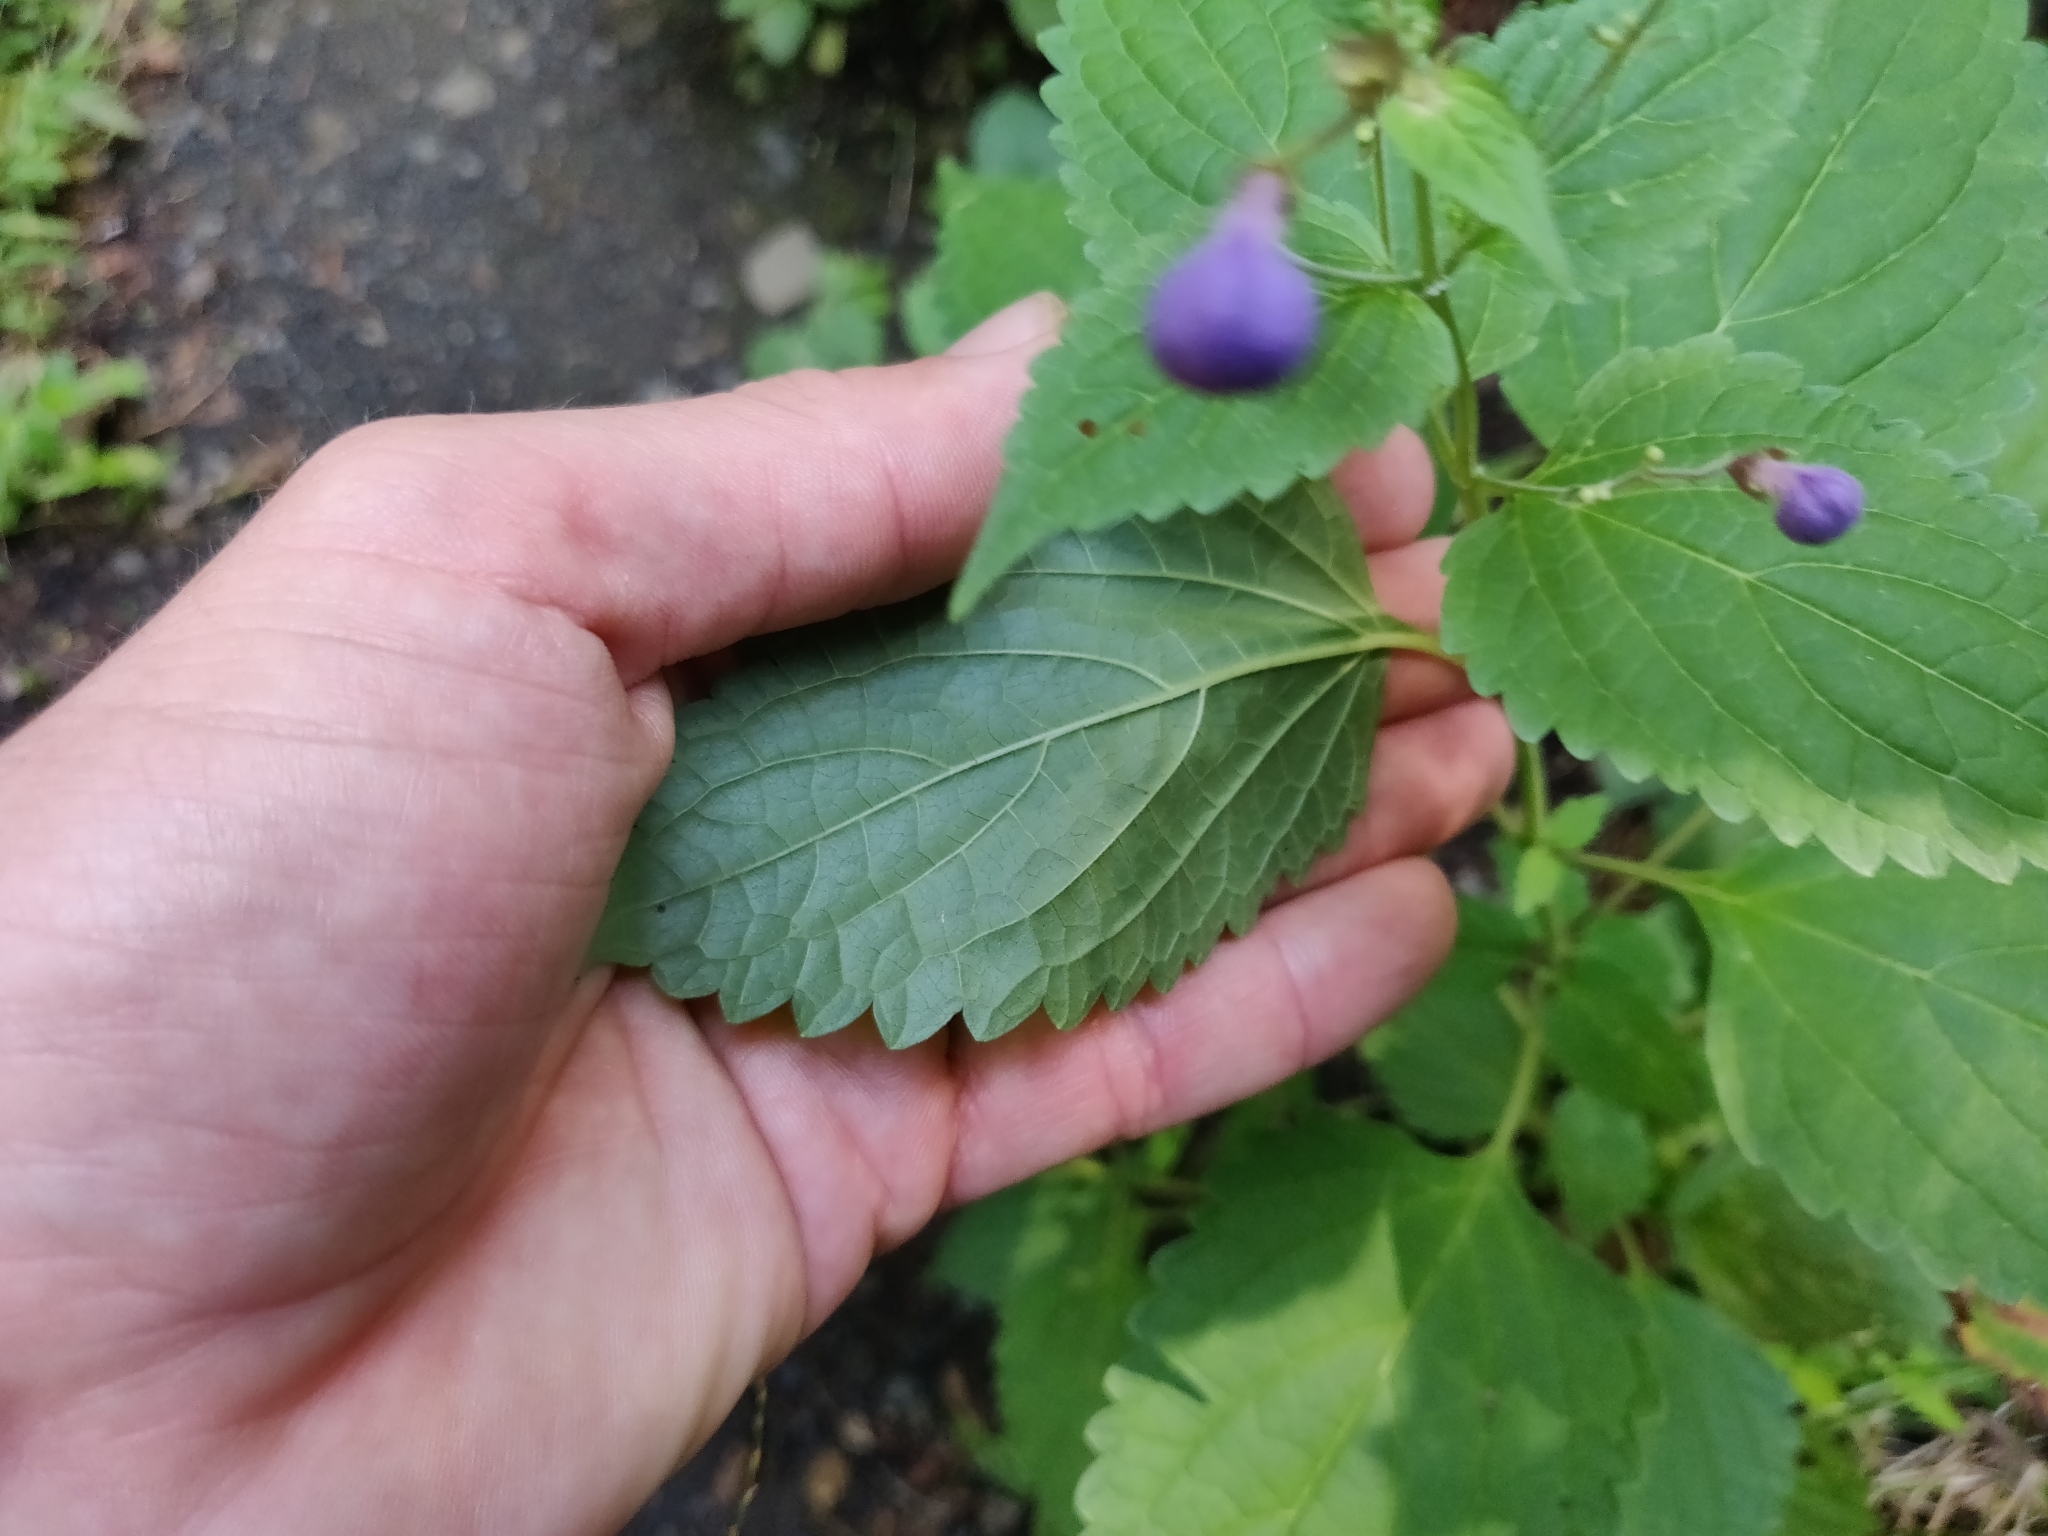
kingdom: Plantae
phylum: Tracheophyta
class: Magnoliopsida
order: Lamiales
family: Lamiaceae
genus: Tripora
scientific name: Tripora divaricata
